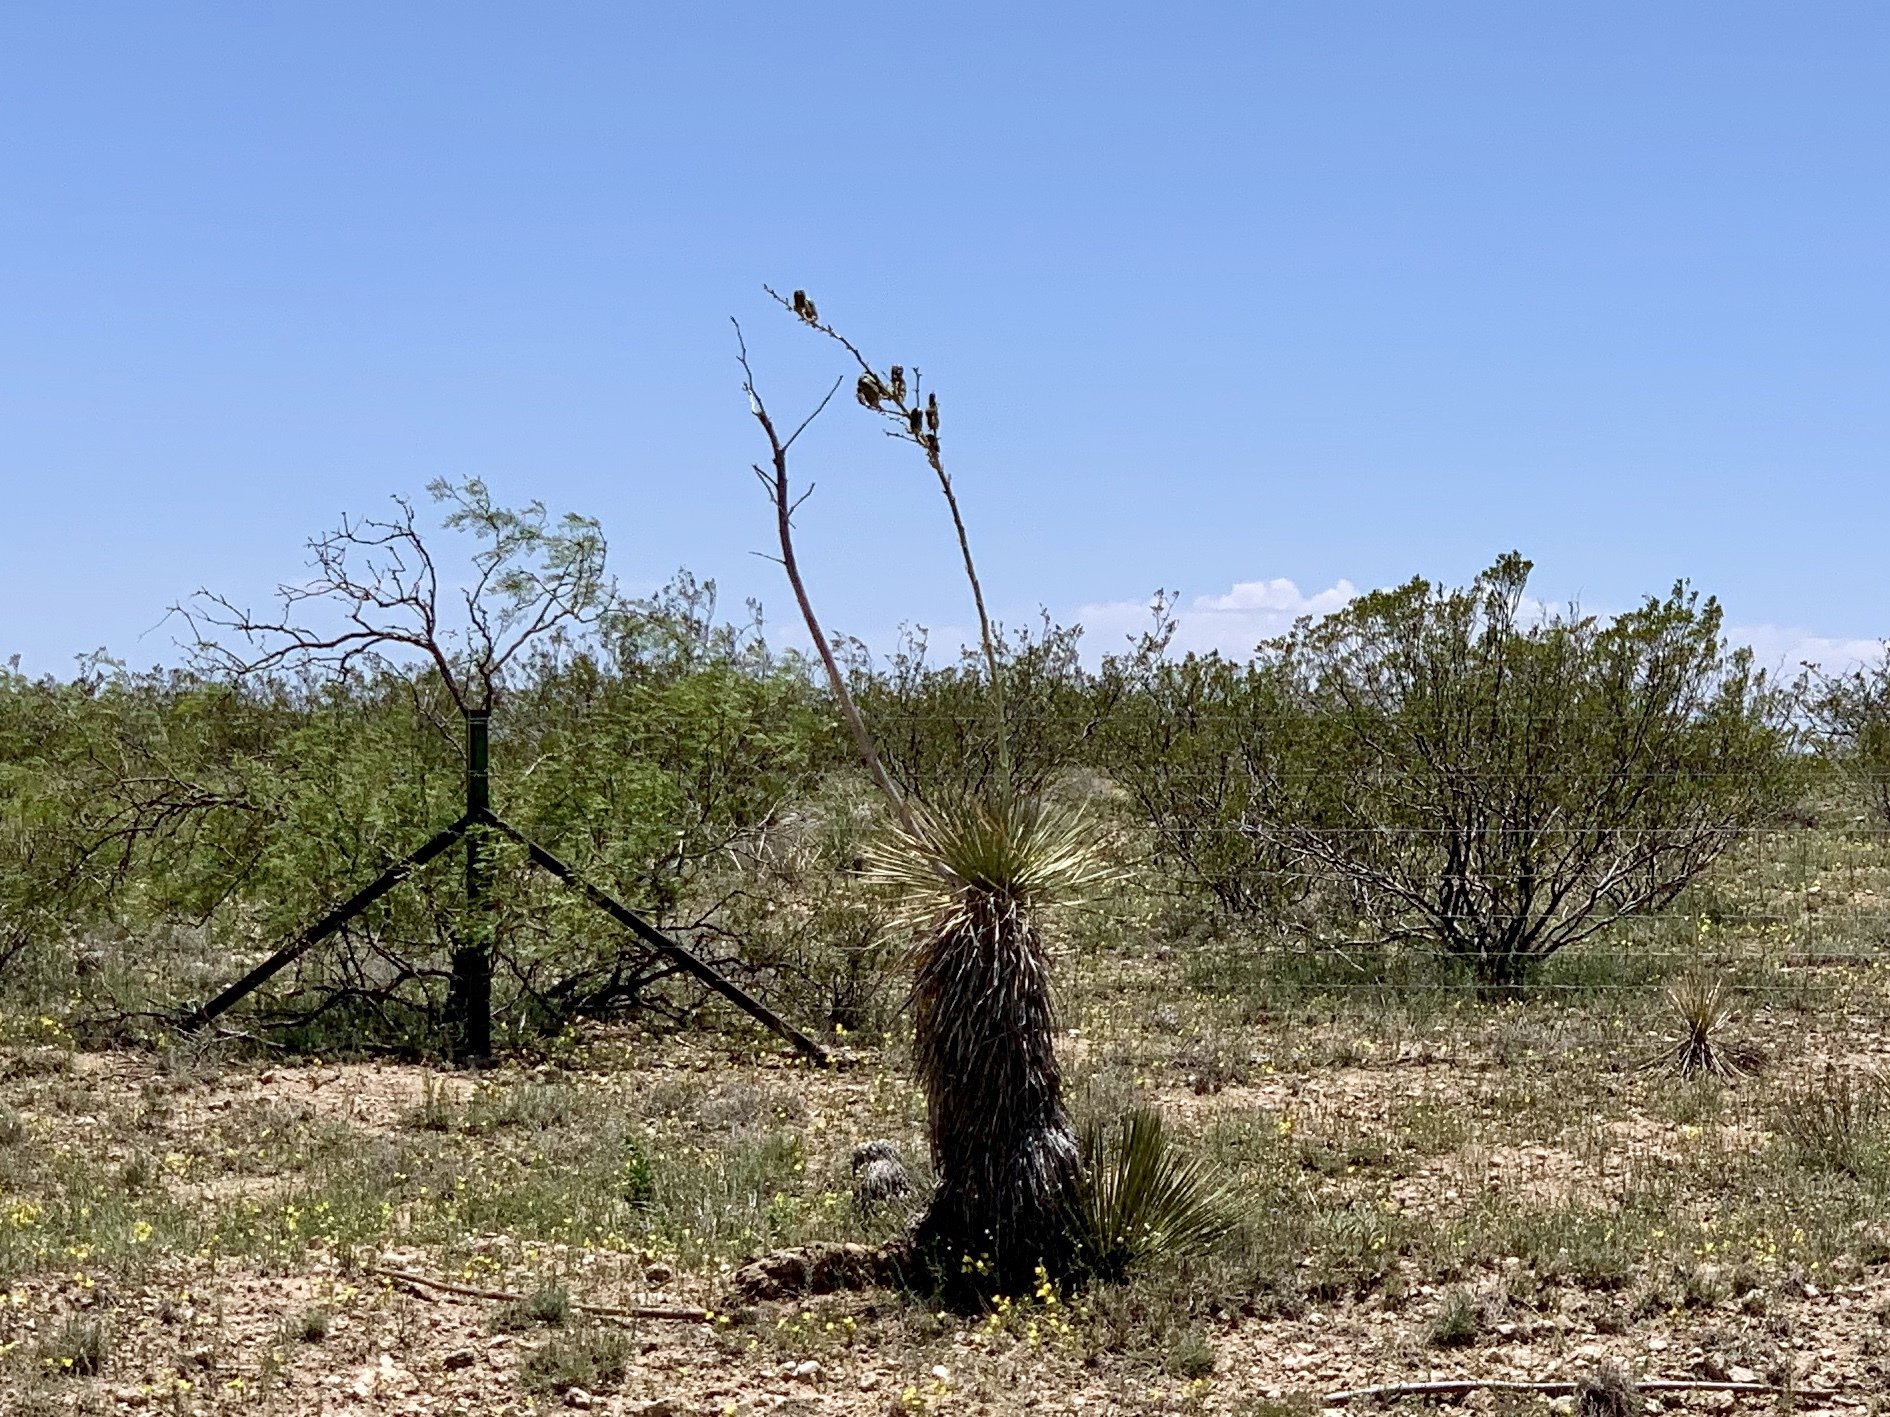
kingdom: Plantae
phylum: Tracheophyta
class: Liliopsida
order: Asparagales
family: Asparagaceae
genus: Yucca
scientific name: Yucca elata
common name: Palmella
